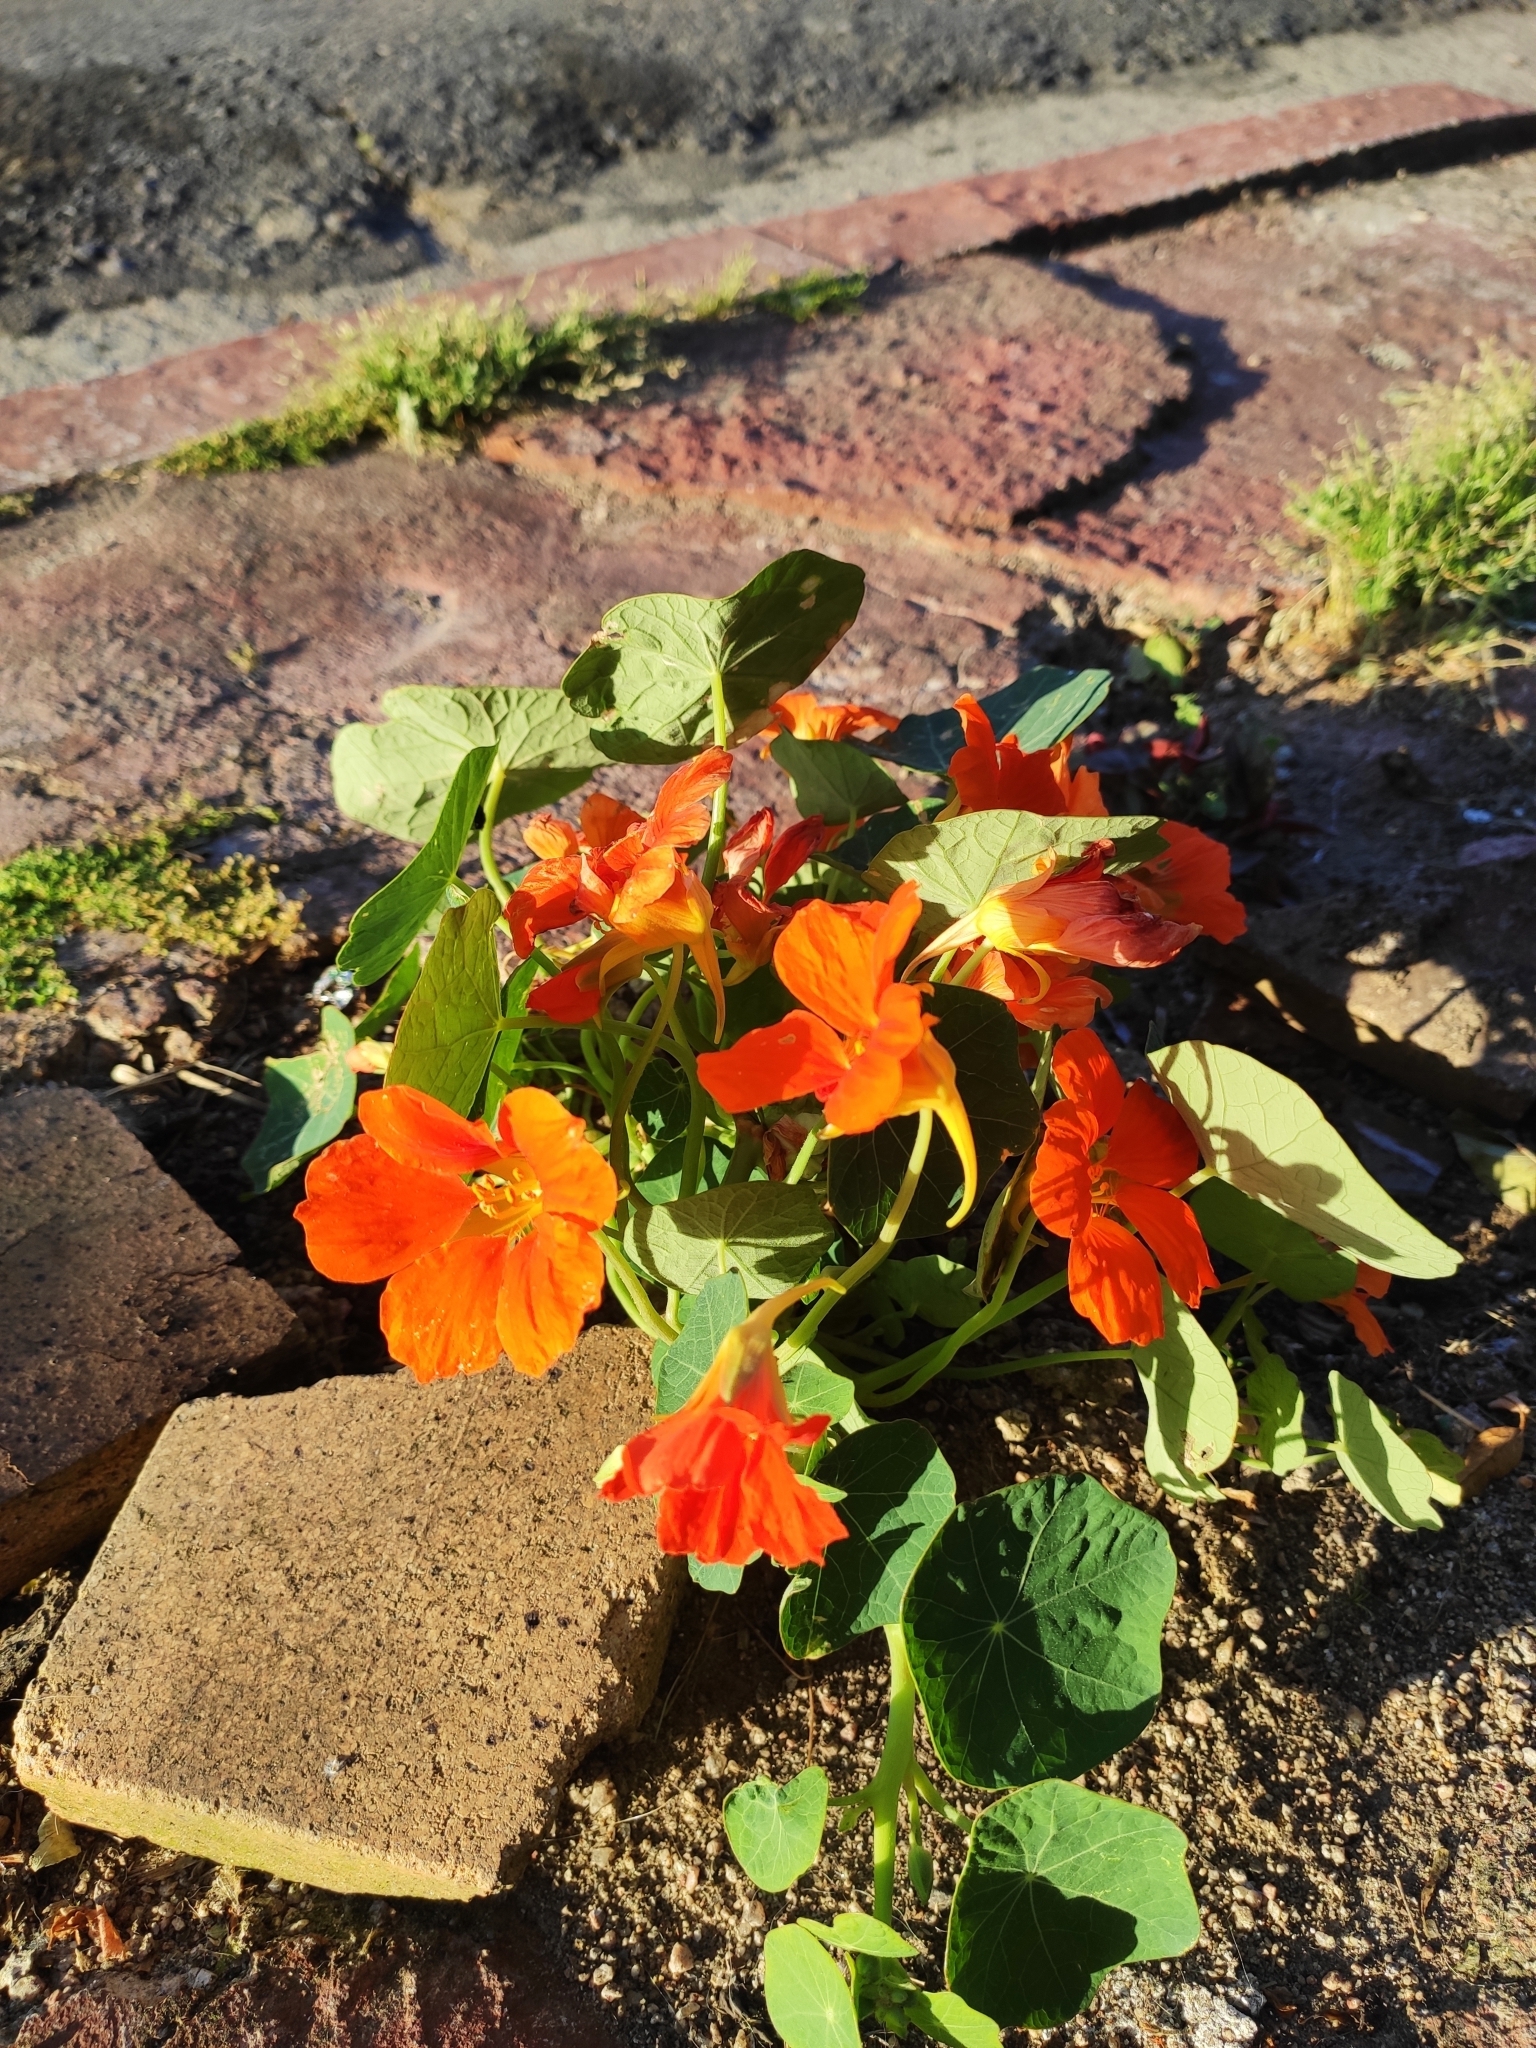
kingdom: Plantae
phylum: Tracheophyta
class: Magnoliopsida
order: Brassicales
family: Tropaeolaceae
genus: Tropaeolum
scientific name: Tropaeolum majus
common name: Nasturtium
